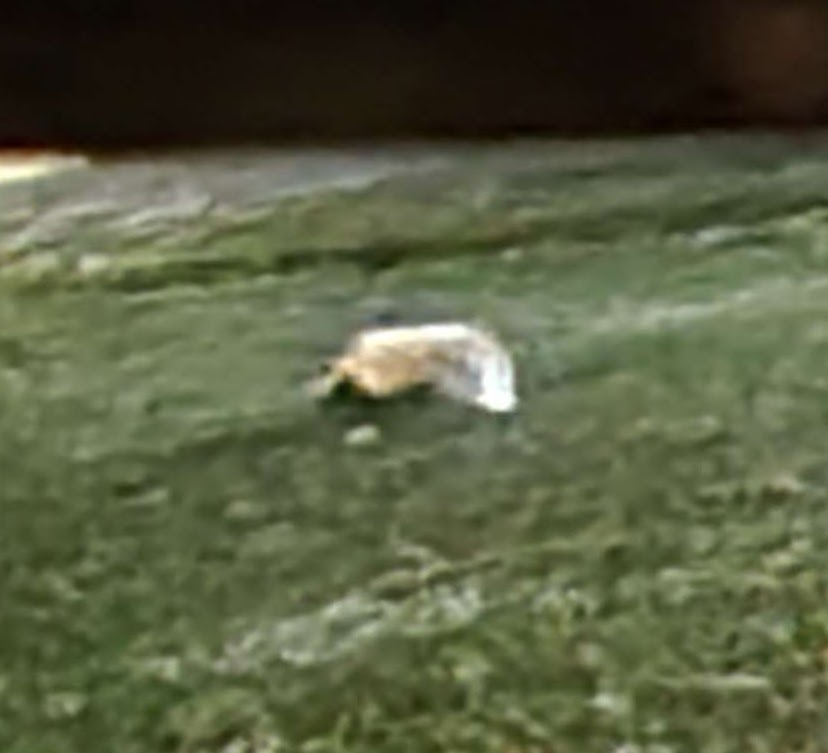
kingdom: Animalia
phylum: Chordata
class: Mammalia
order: Carnivora
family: Mephitidae
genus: Mephitis
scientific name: Mephitis mephitis
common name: Striped skunk
